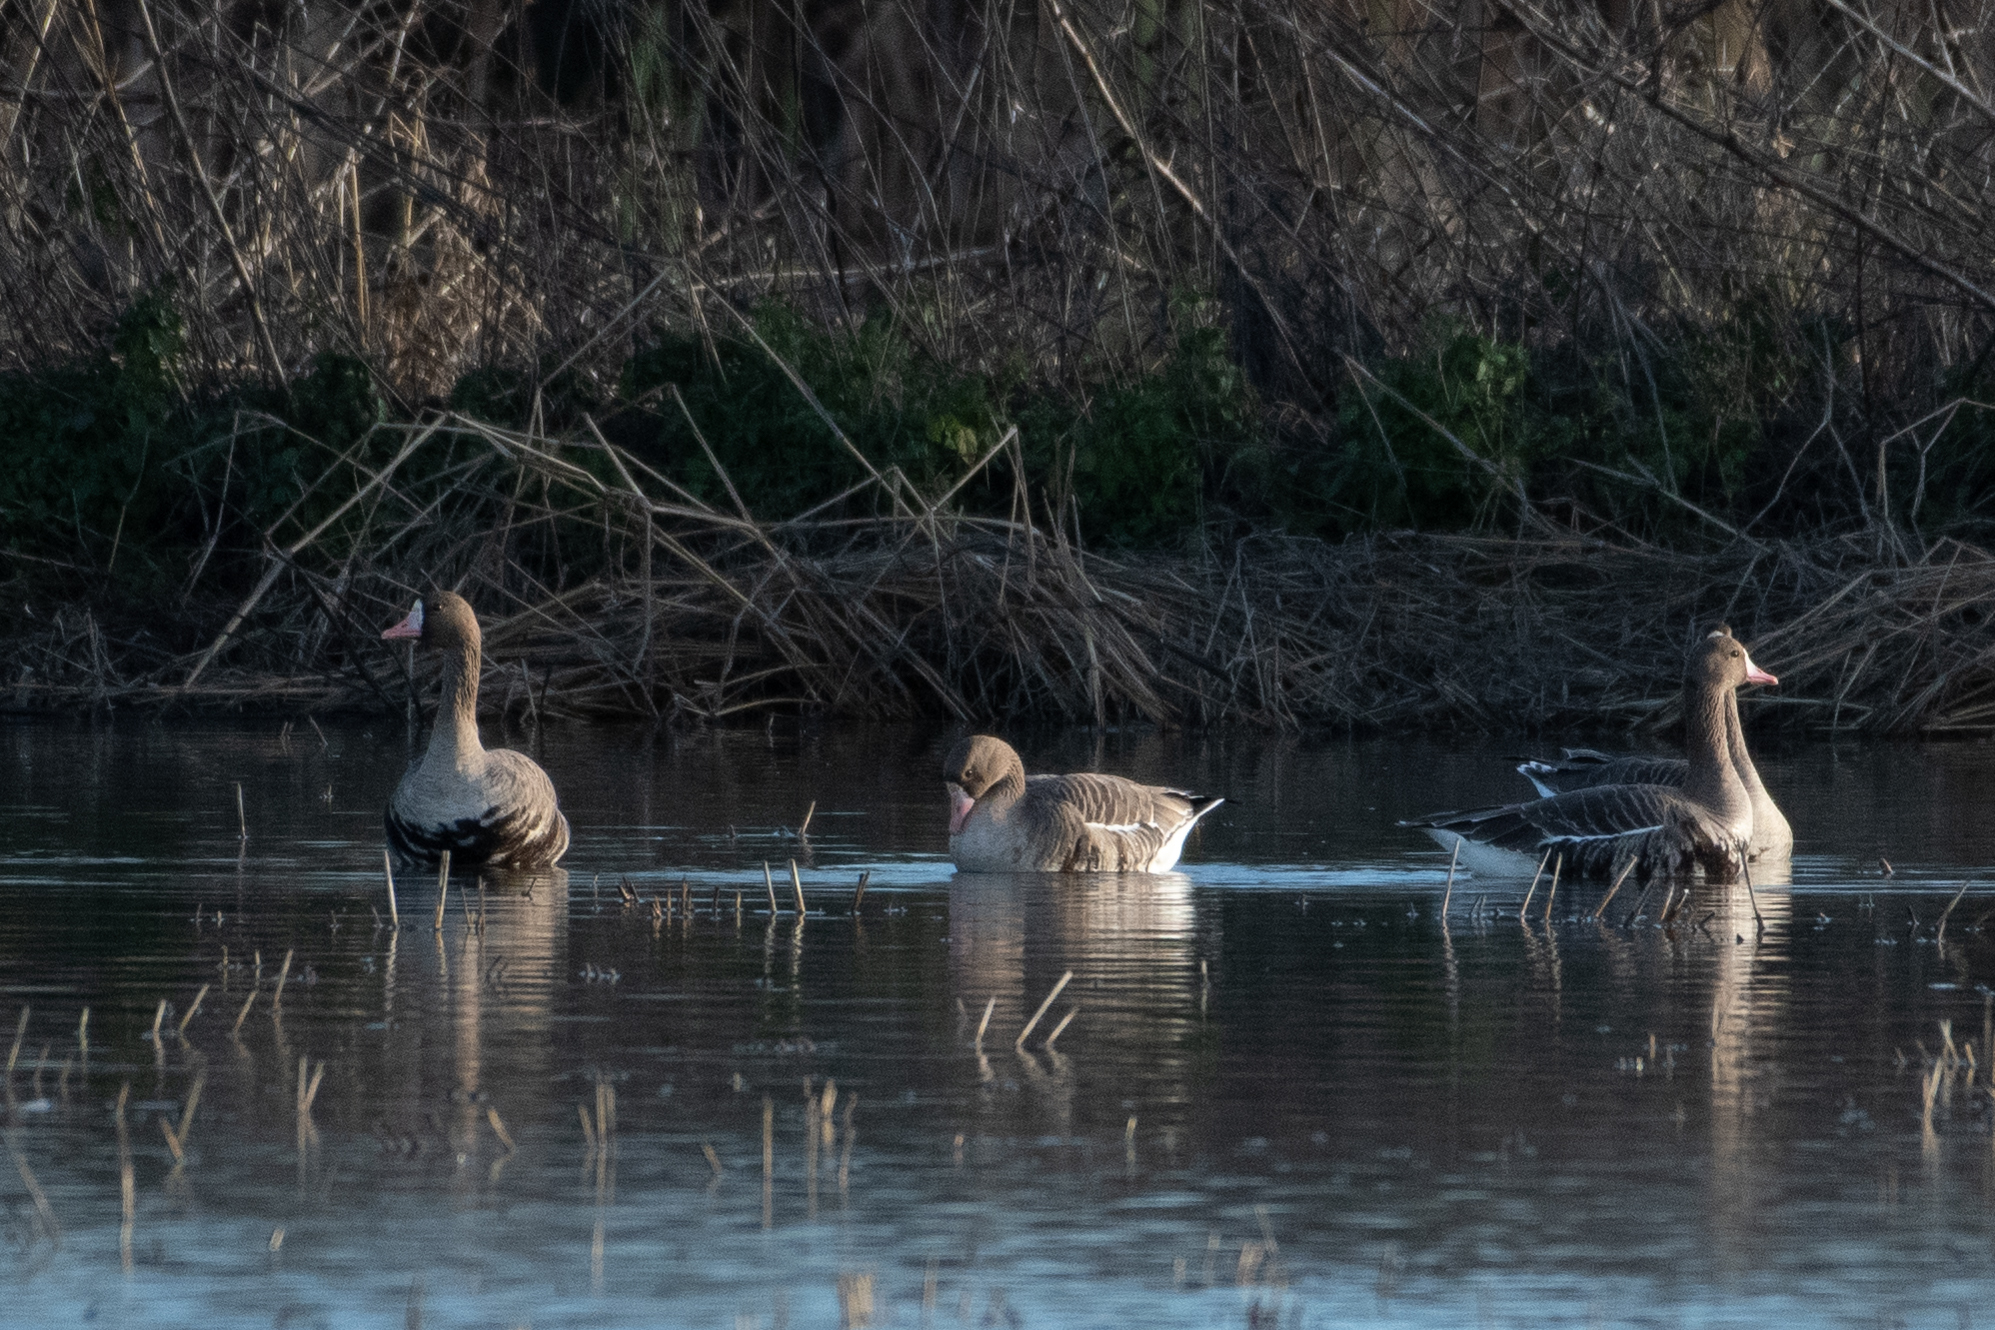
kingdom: Animalia
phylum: Chordata
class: Aves
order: Anseriformes
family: Anatidae
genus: Anser
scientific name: Anser albifrons
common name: Greater white-fronted goose
